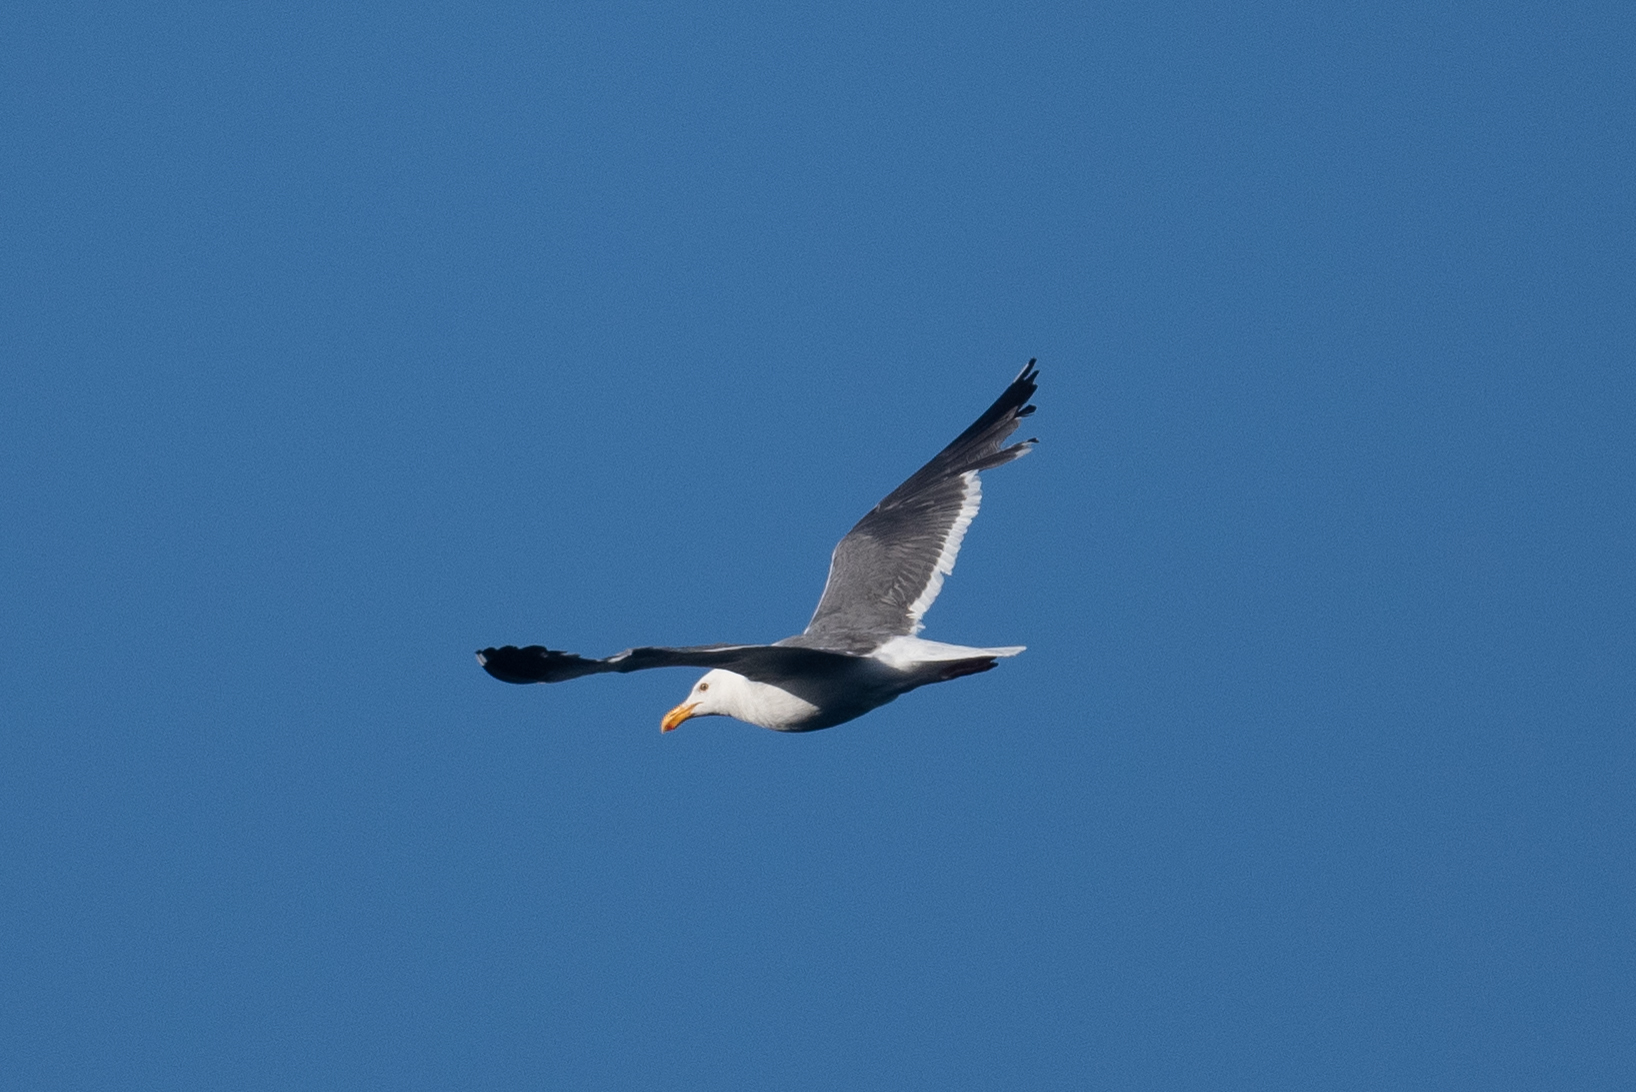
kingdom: Animalia
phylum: Chordata
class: Aves
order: Charadriiformes
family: Laridae
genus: Larus
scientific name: Larus occidentalis
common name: Western gull
